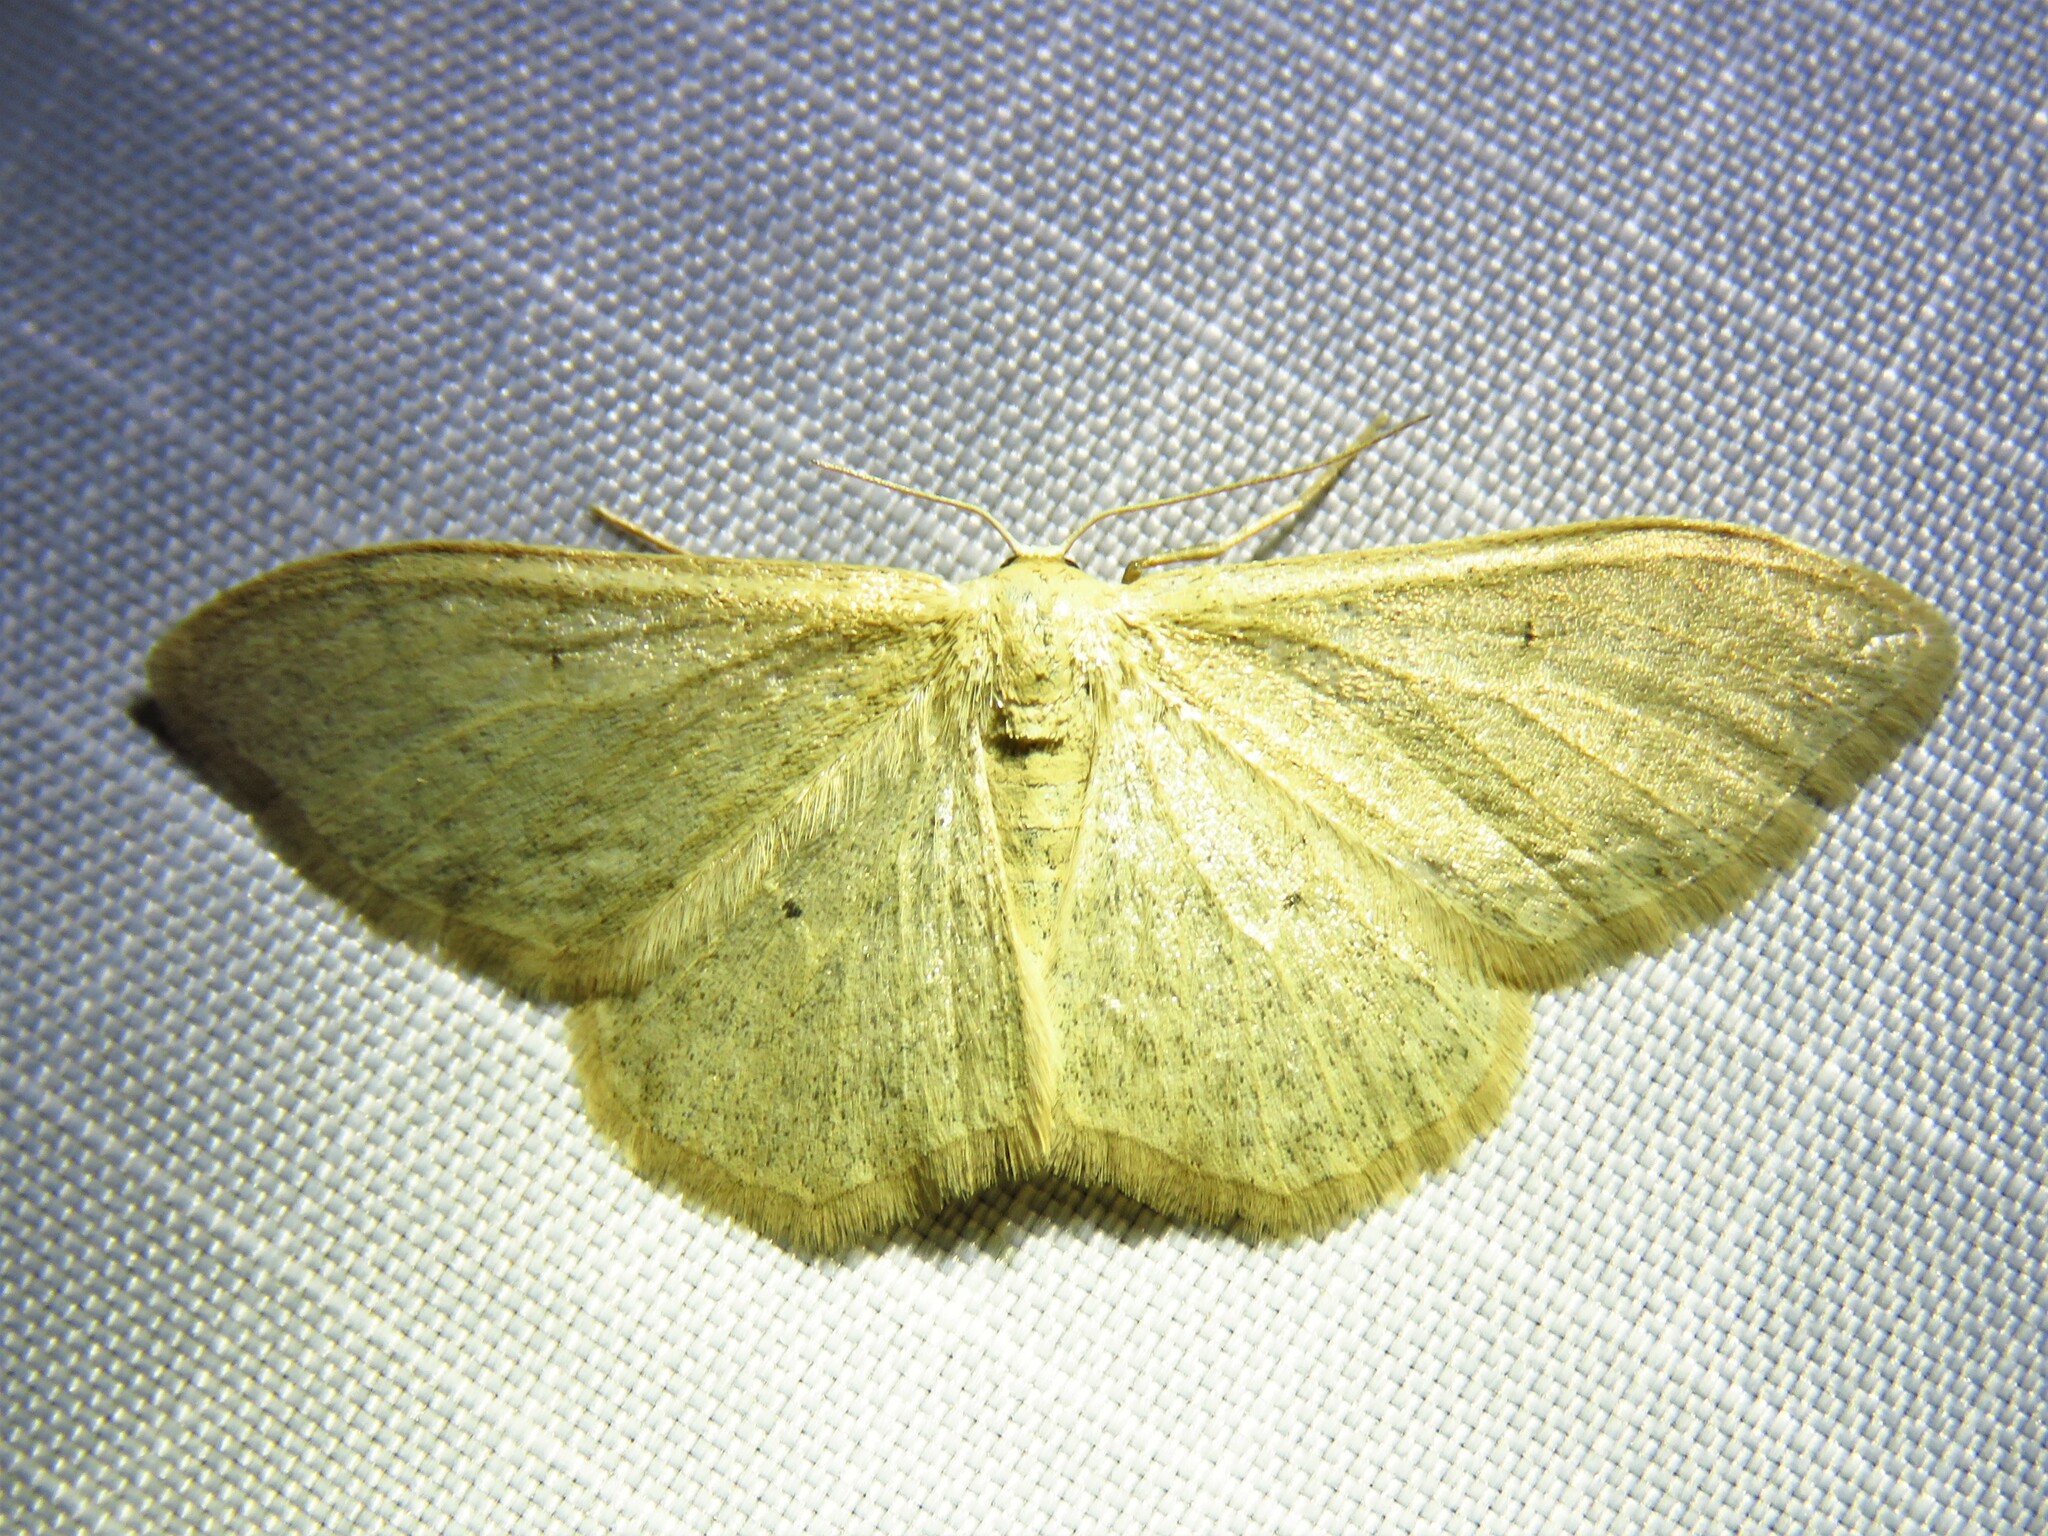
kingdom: Animalia
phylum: Arthropoda
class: Insecta
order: Lepidoptera
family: Geometridae
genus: Idaea
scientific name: Idaea straminata
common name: Plain wave
